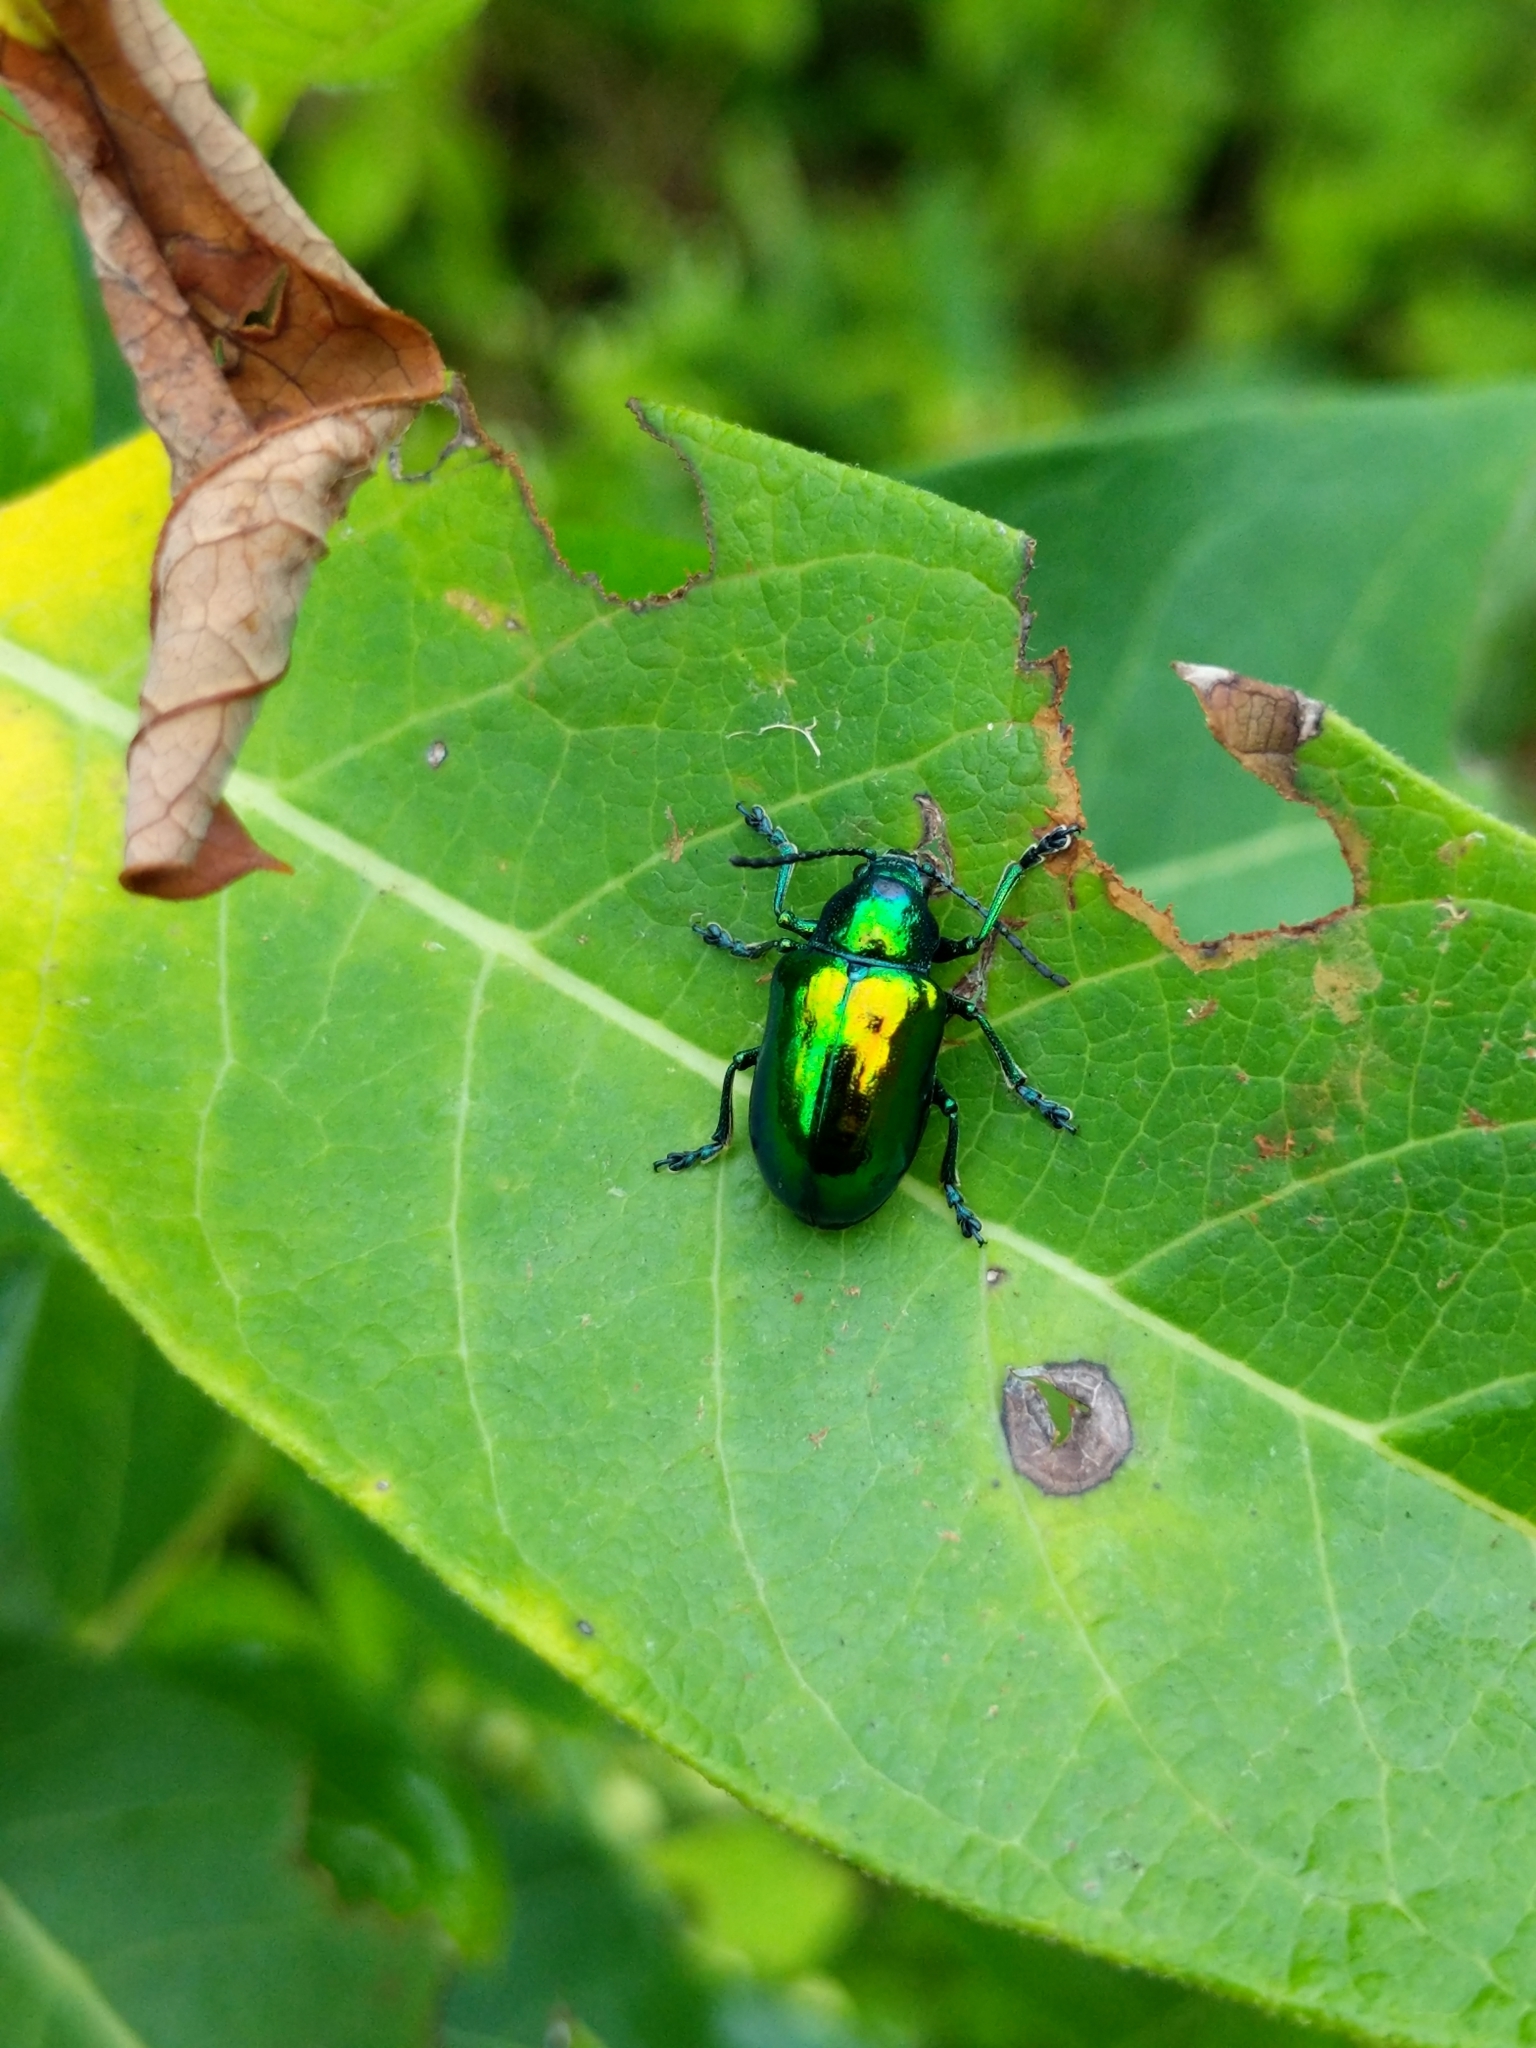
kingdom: Animalia
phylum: Arthropoda
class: Insecta
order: Coleoptera
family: Chrysomelidae
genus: Chrysochus
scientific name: Chrysochus auratus
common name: Dogbane leaf beetle
